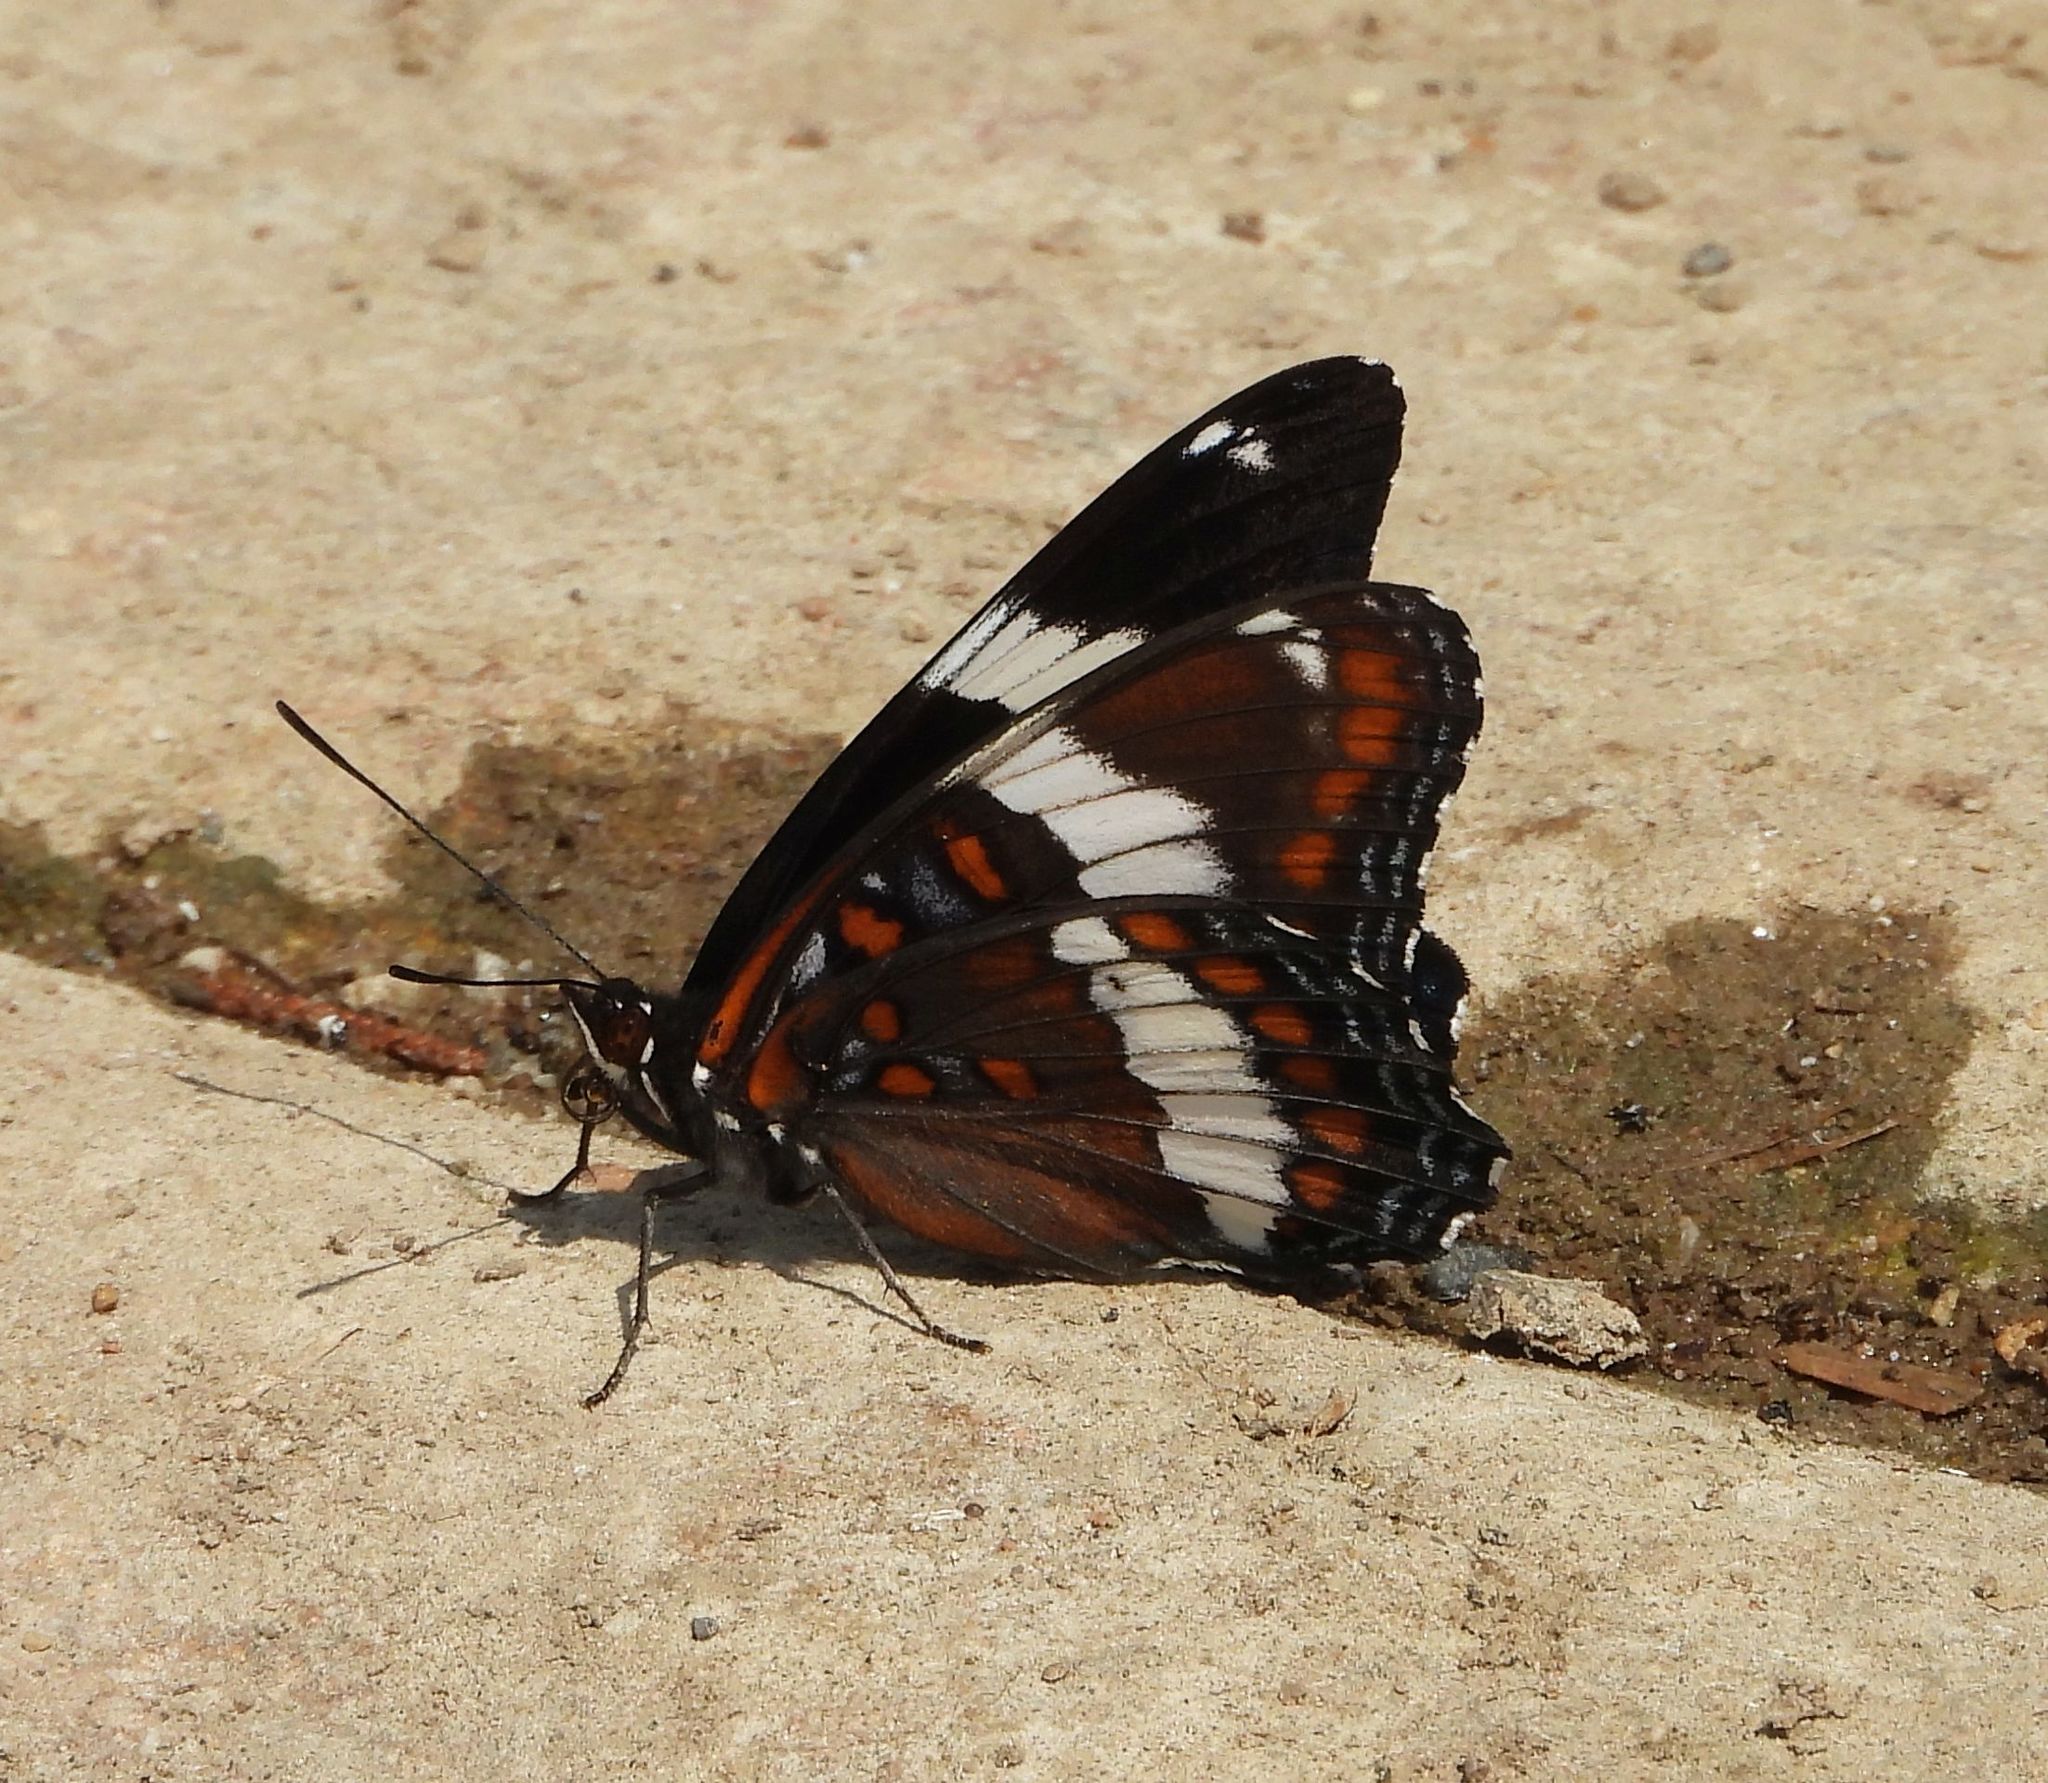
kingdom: Animalia
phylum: Arthropoda
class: Insecta
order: Lepidoptera
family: Nymphalidae
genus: Limenitis
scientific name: Limenitis arthemis
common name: Red-spotted admiral
